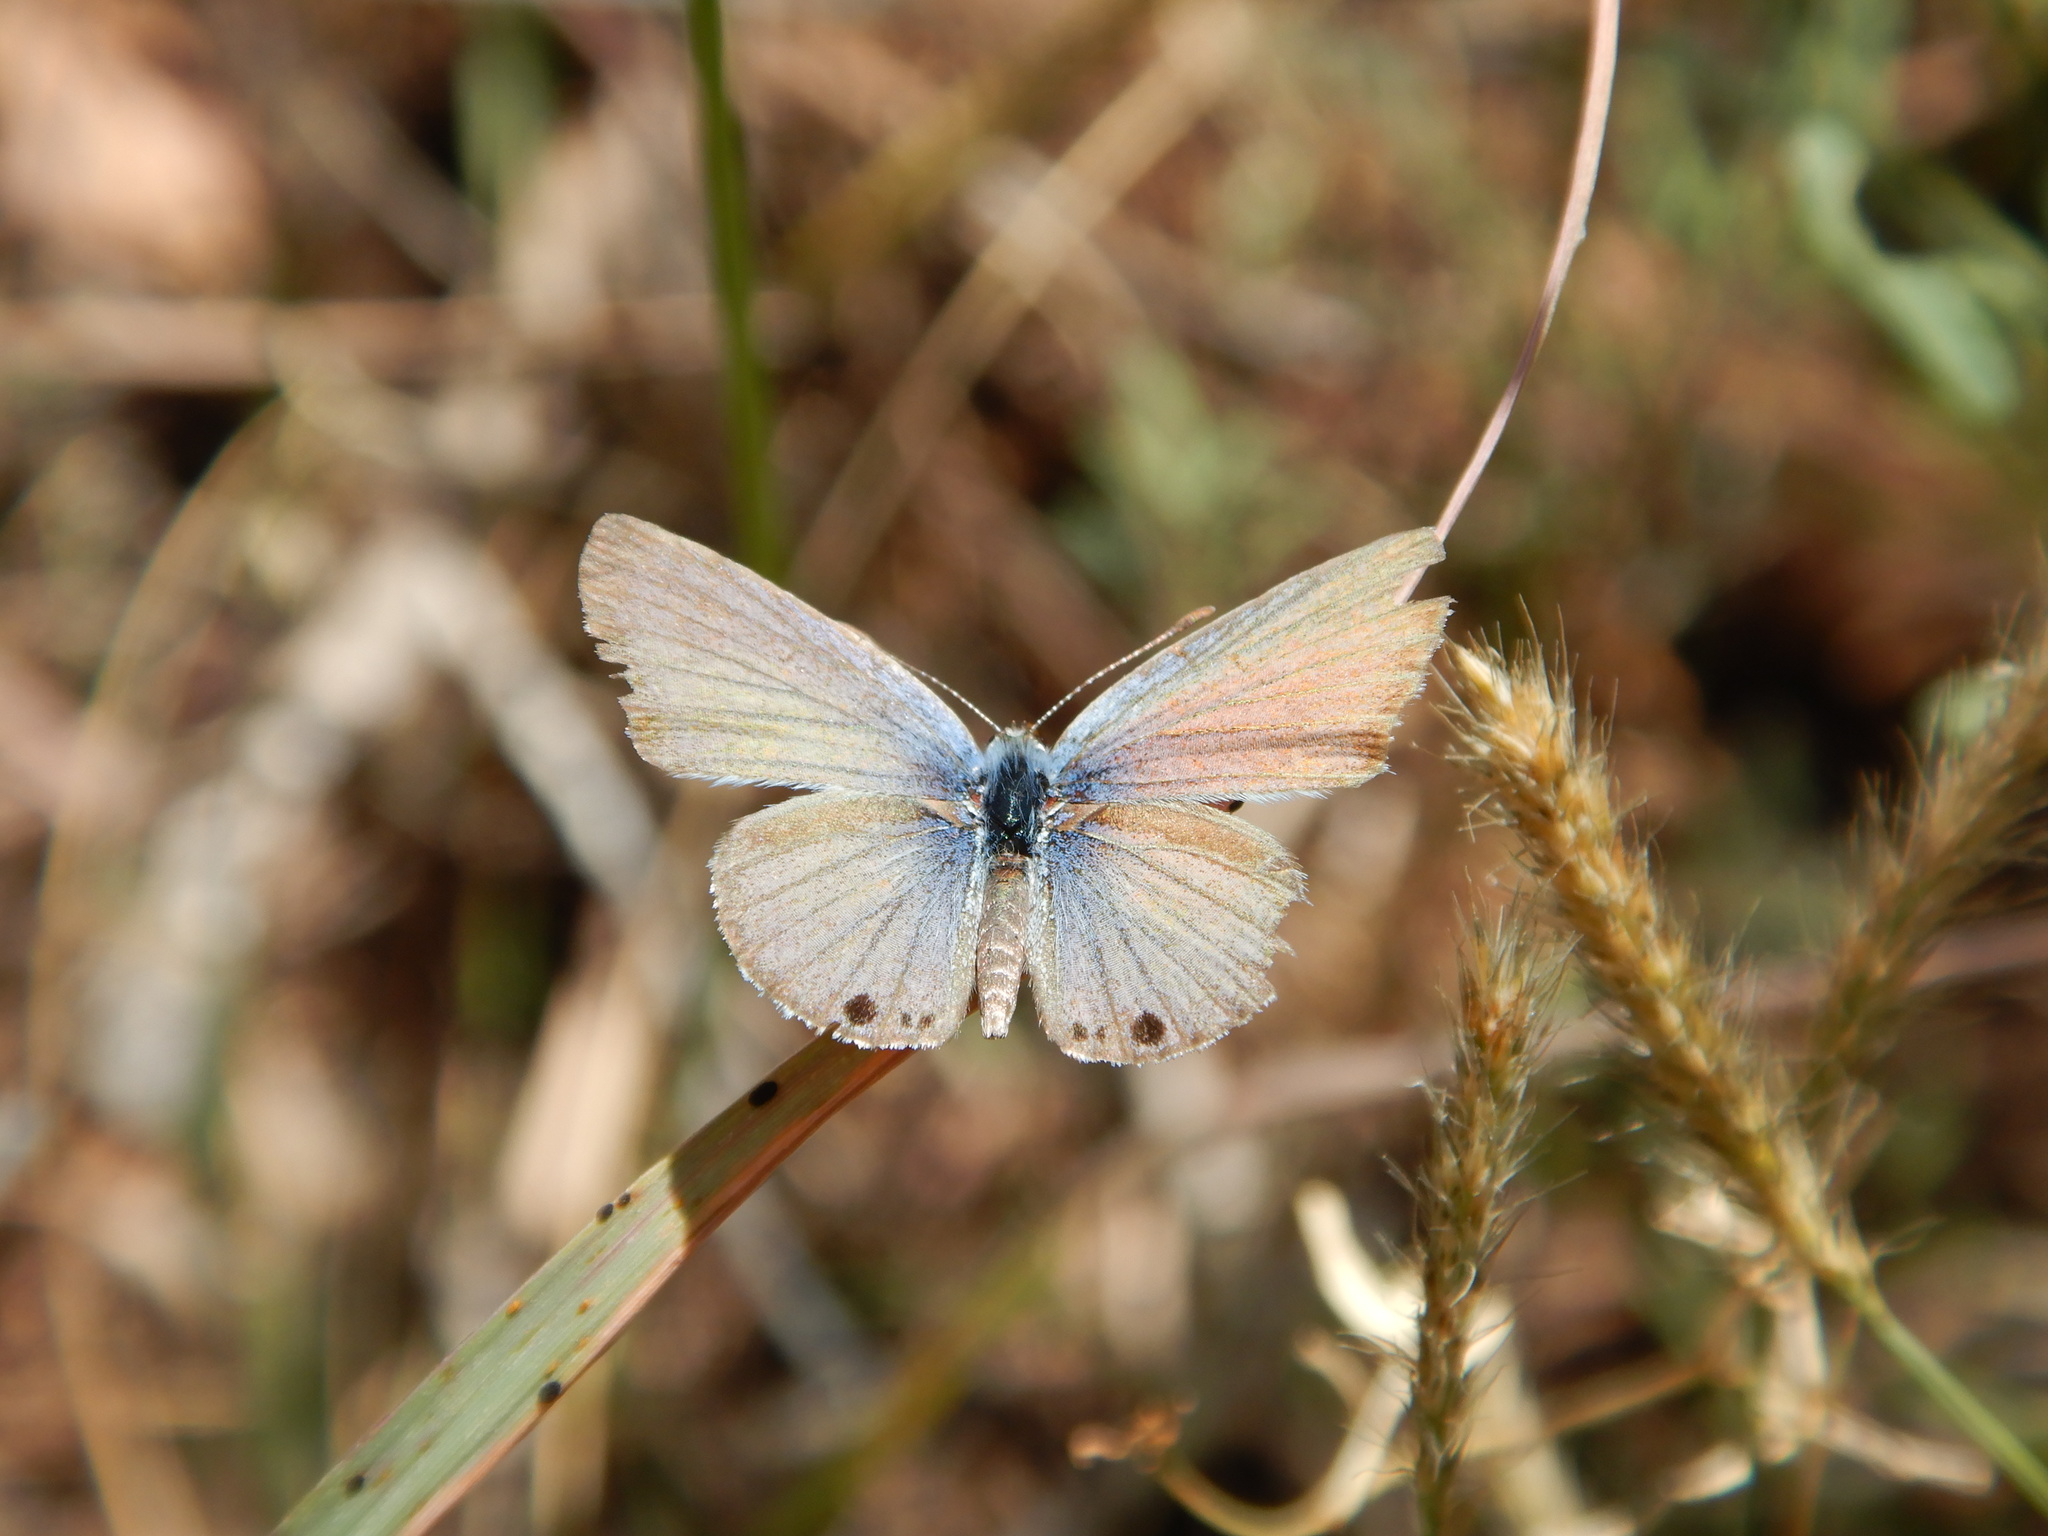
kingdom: Animalia
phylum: Arthropoda
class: Insecta
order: Lepidoptera
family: Lycaenidae
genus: Leptotes
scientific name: Leptotes marina
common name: Marine blue
